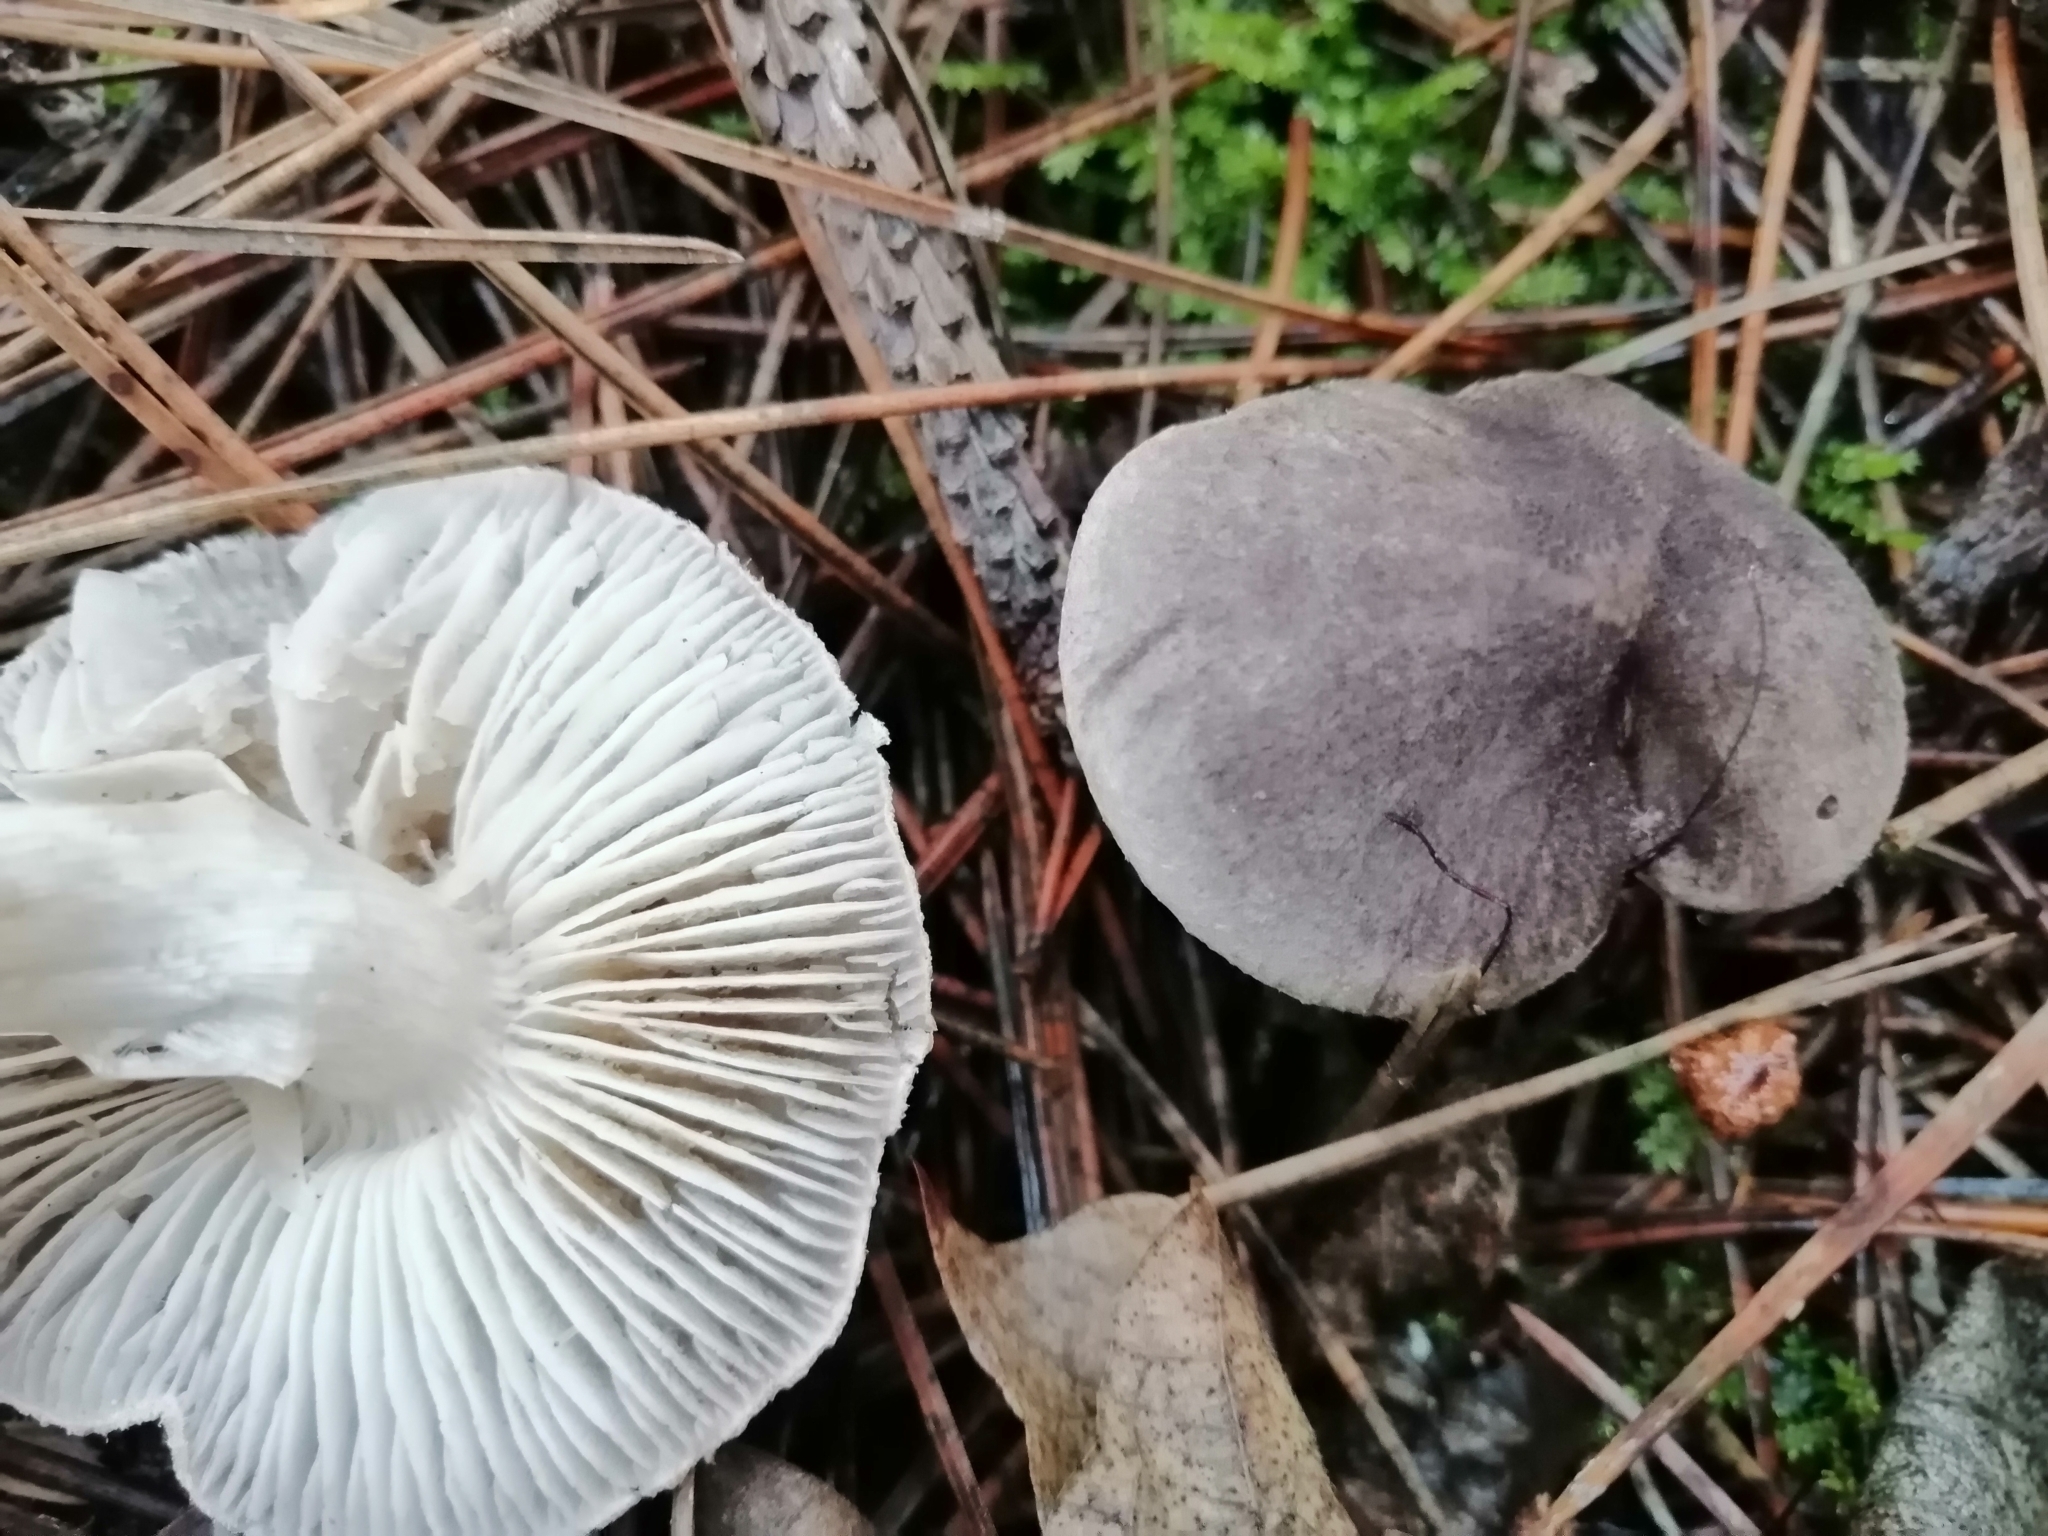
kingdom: Fungi
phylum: Basidiomycota
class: Agaricomycetes
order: Agaricales
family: Tricholomataceae
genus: Tricholoma
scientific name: Tricholoma terreum
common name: Grey knight
